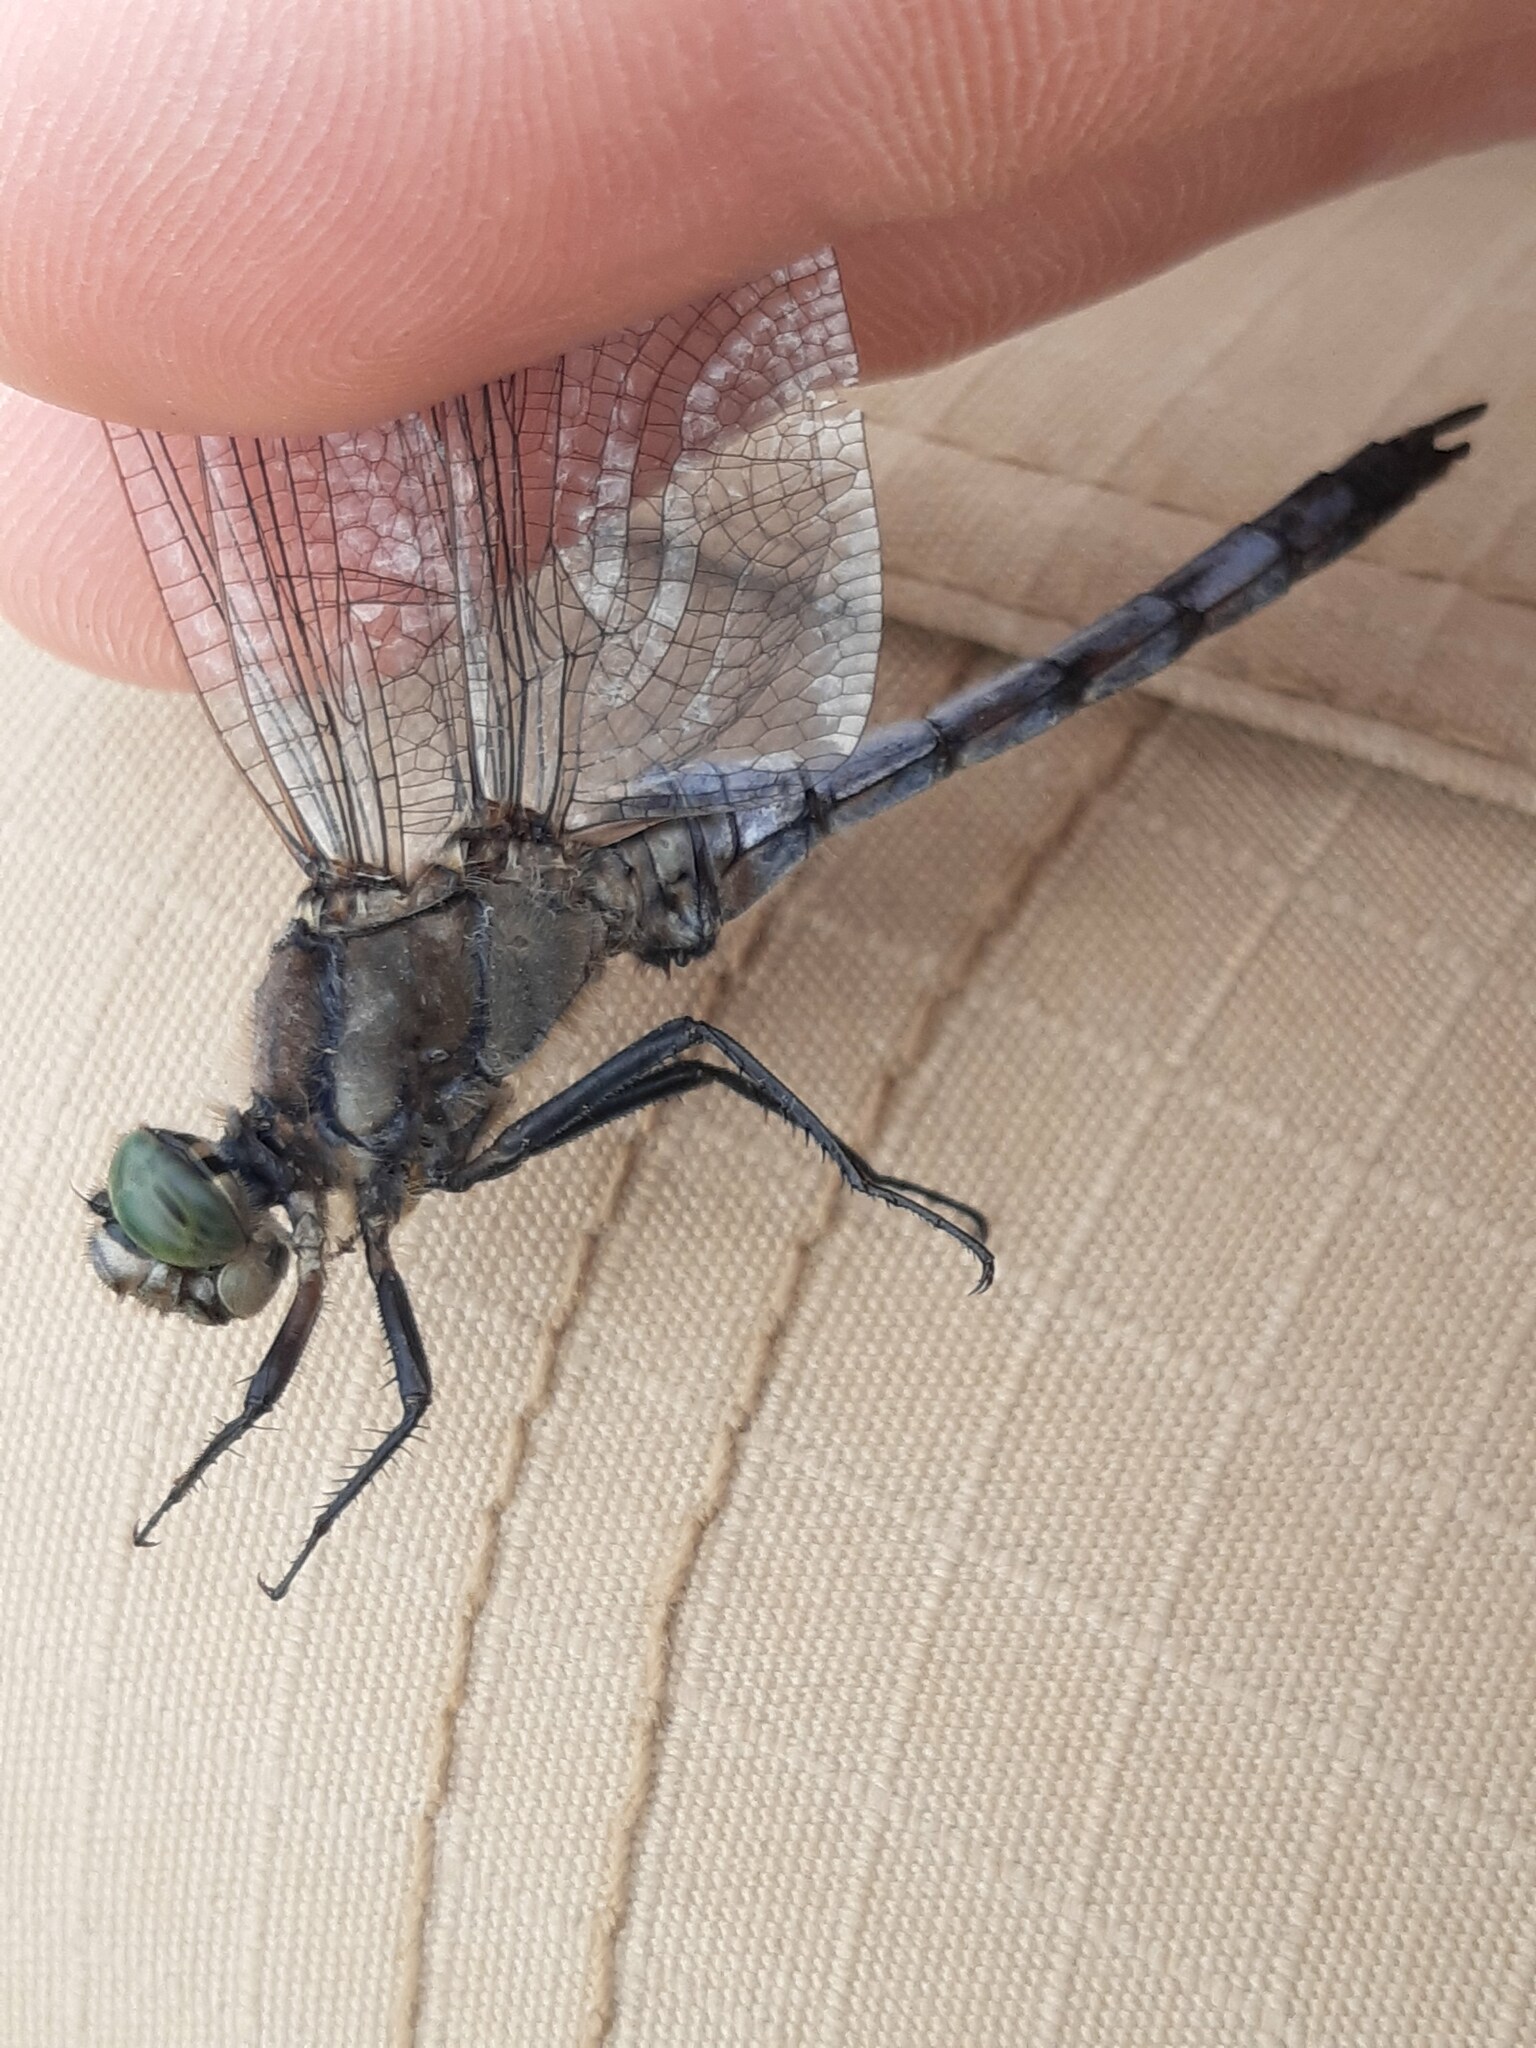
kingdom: Animalia
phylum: Arthropoda
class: Insecta
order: Odonata
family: Libellulidae
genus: Orthetrum
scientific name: Orthetrum cancellatum
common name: Black-tailed skimmer
